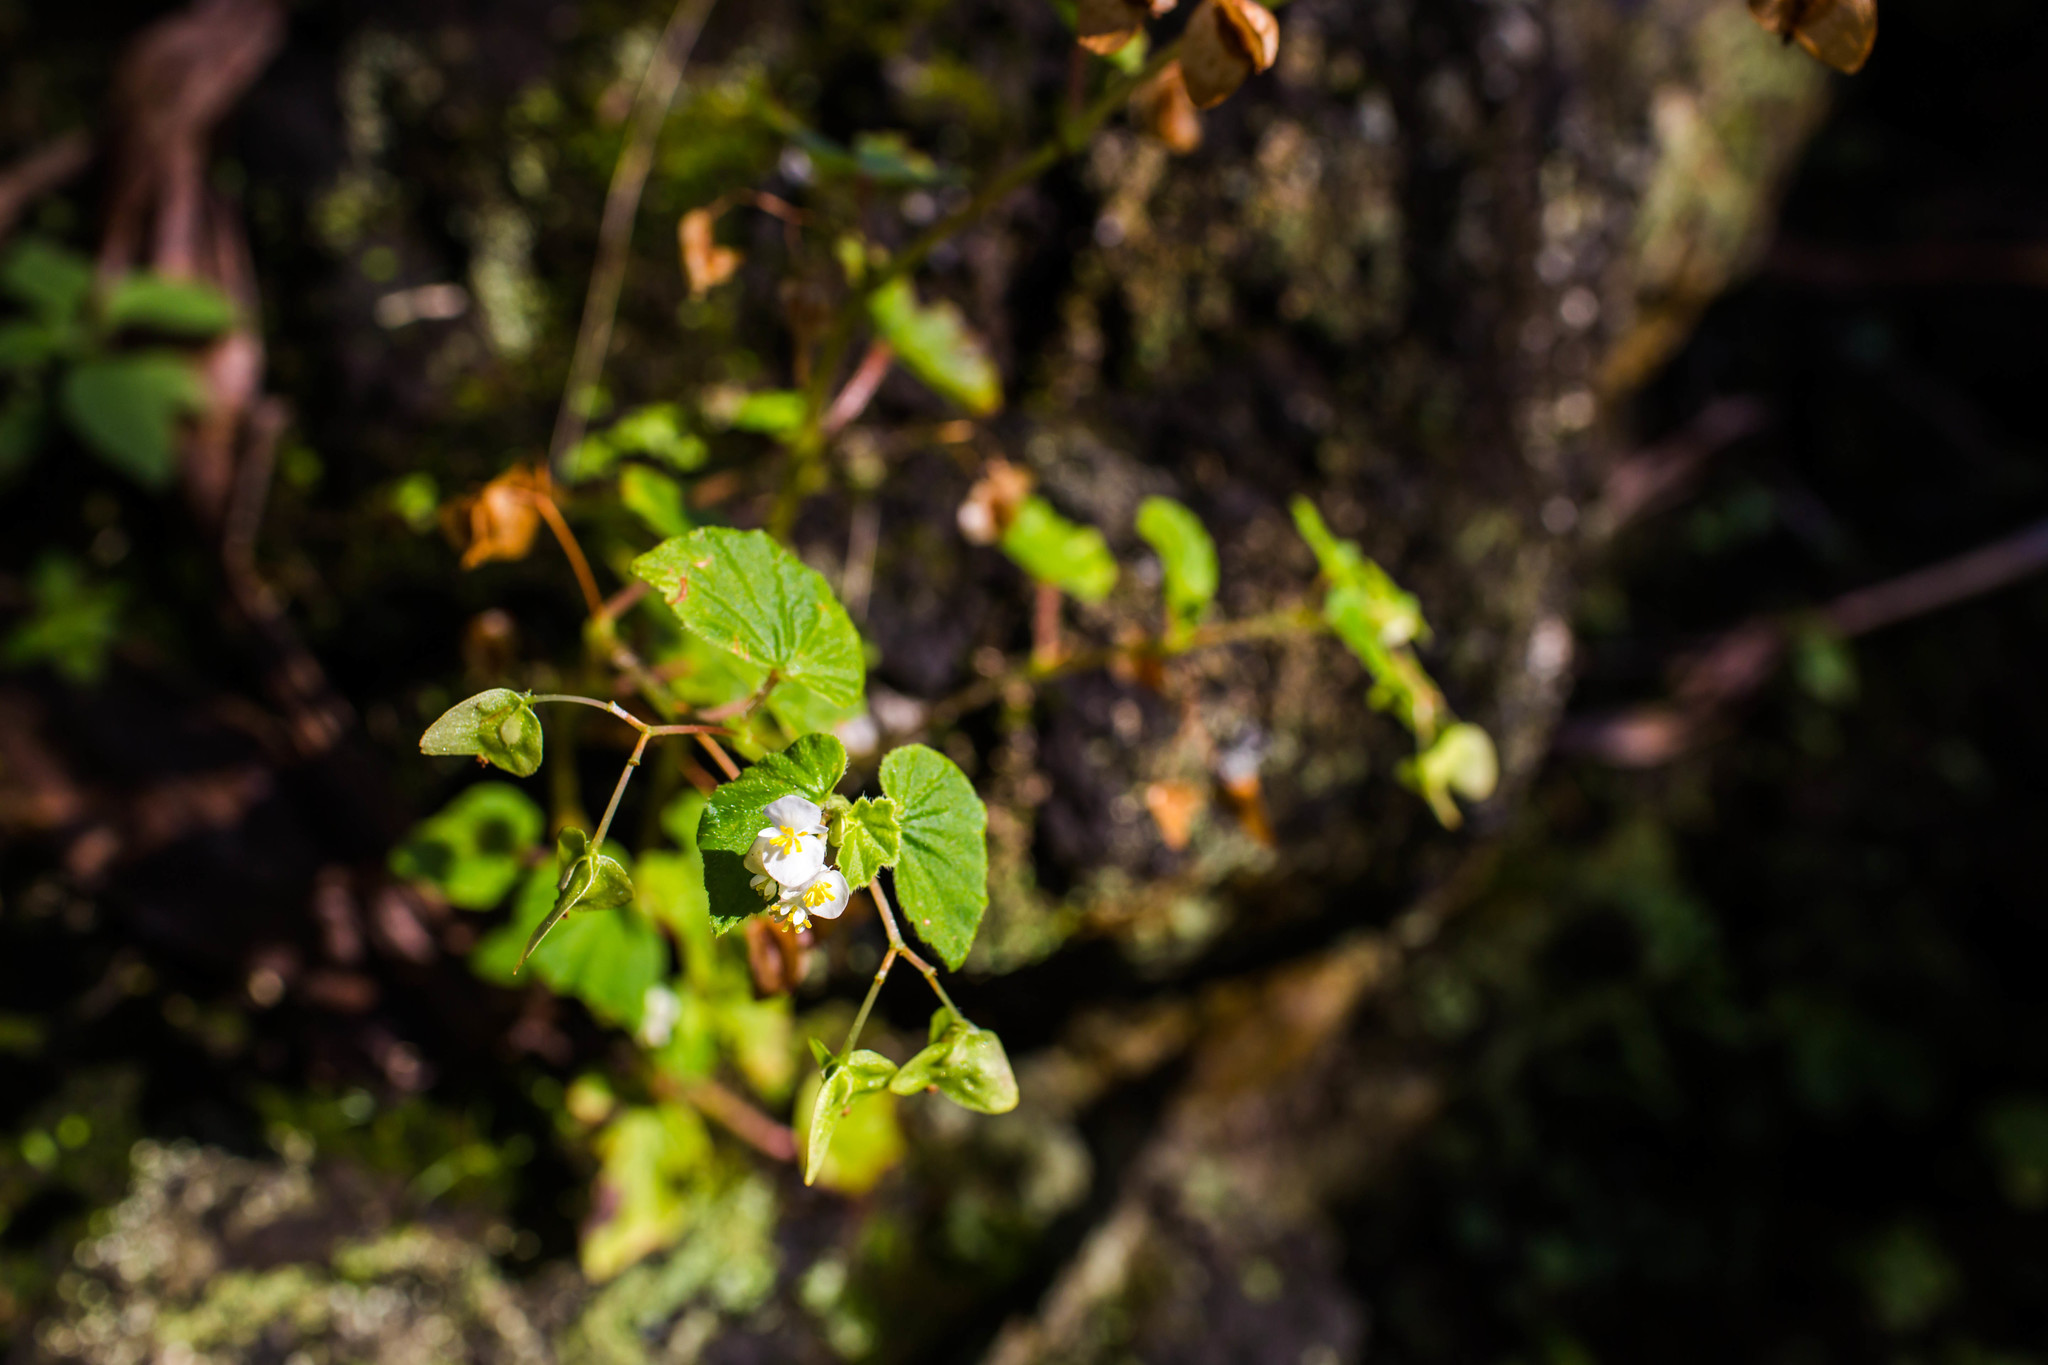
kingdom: Plantae
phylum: Tracheophyta
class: Magnoliopsida
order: Cucurbitales
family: Begoniaceae
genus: Begonia
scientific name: Begonia hirtella
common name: Brazilian begonia
